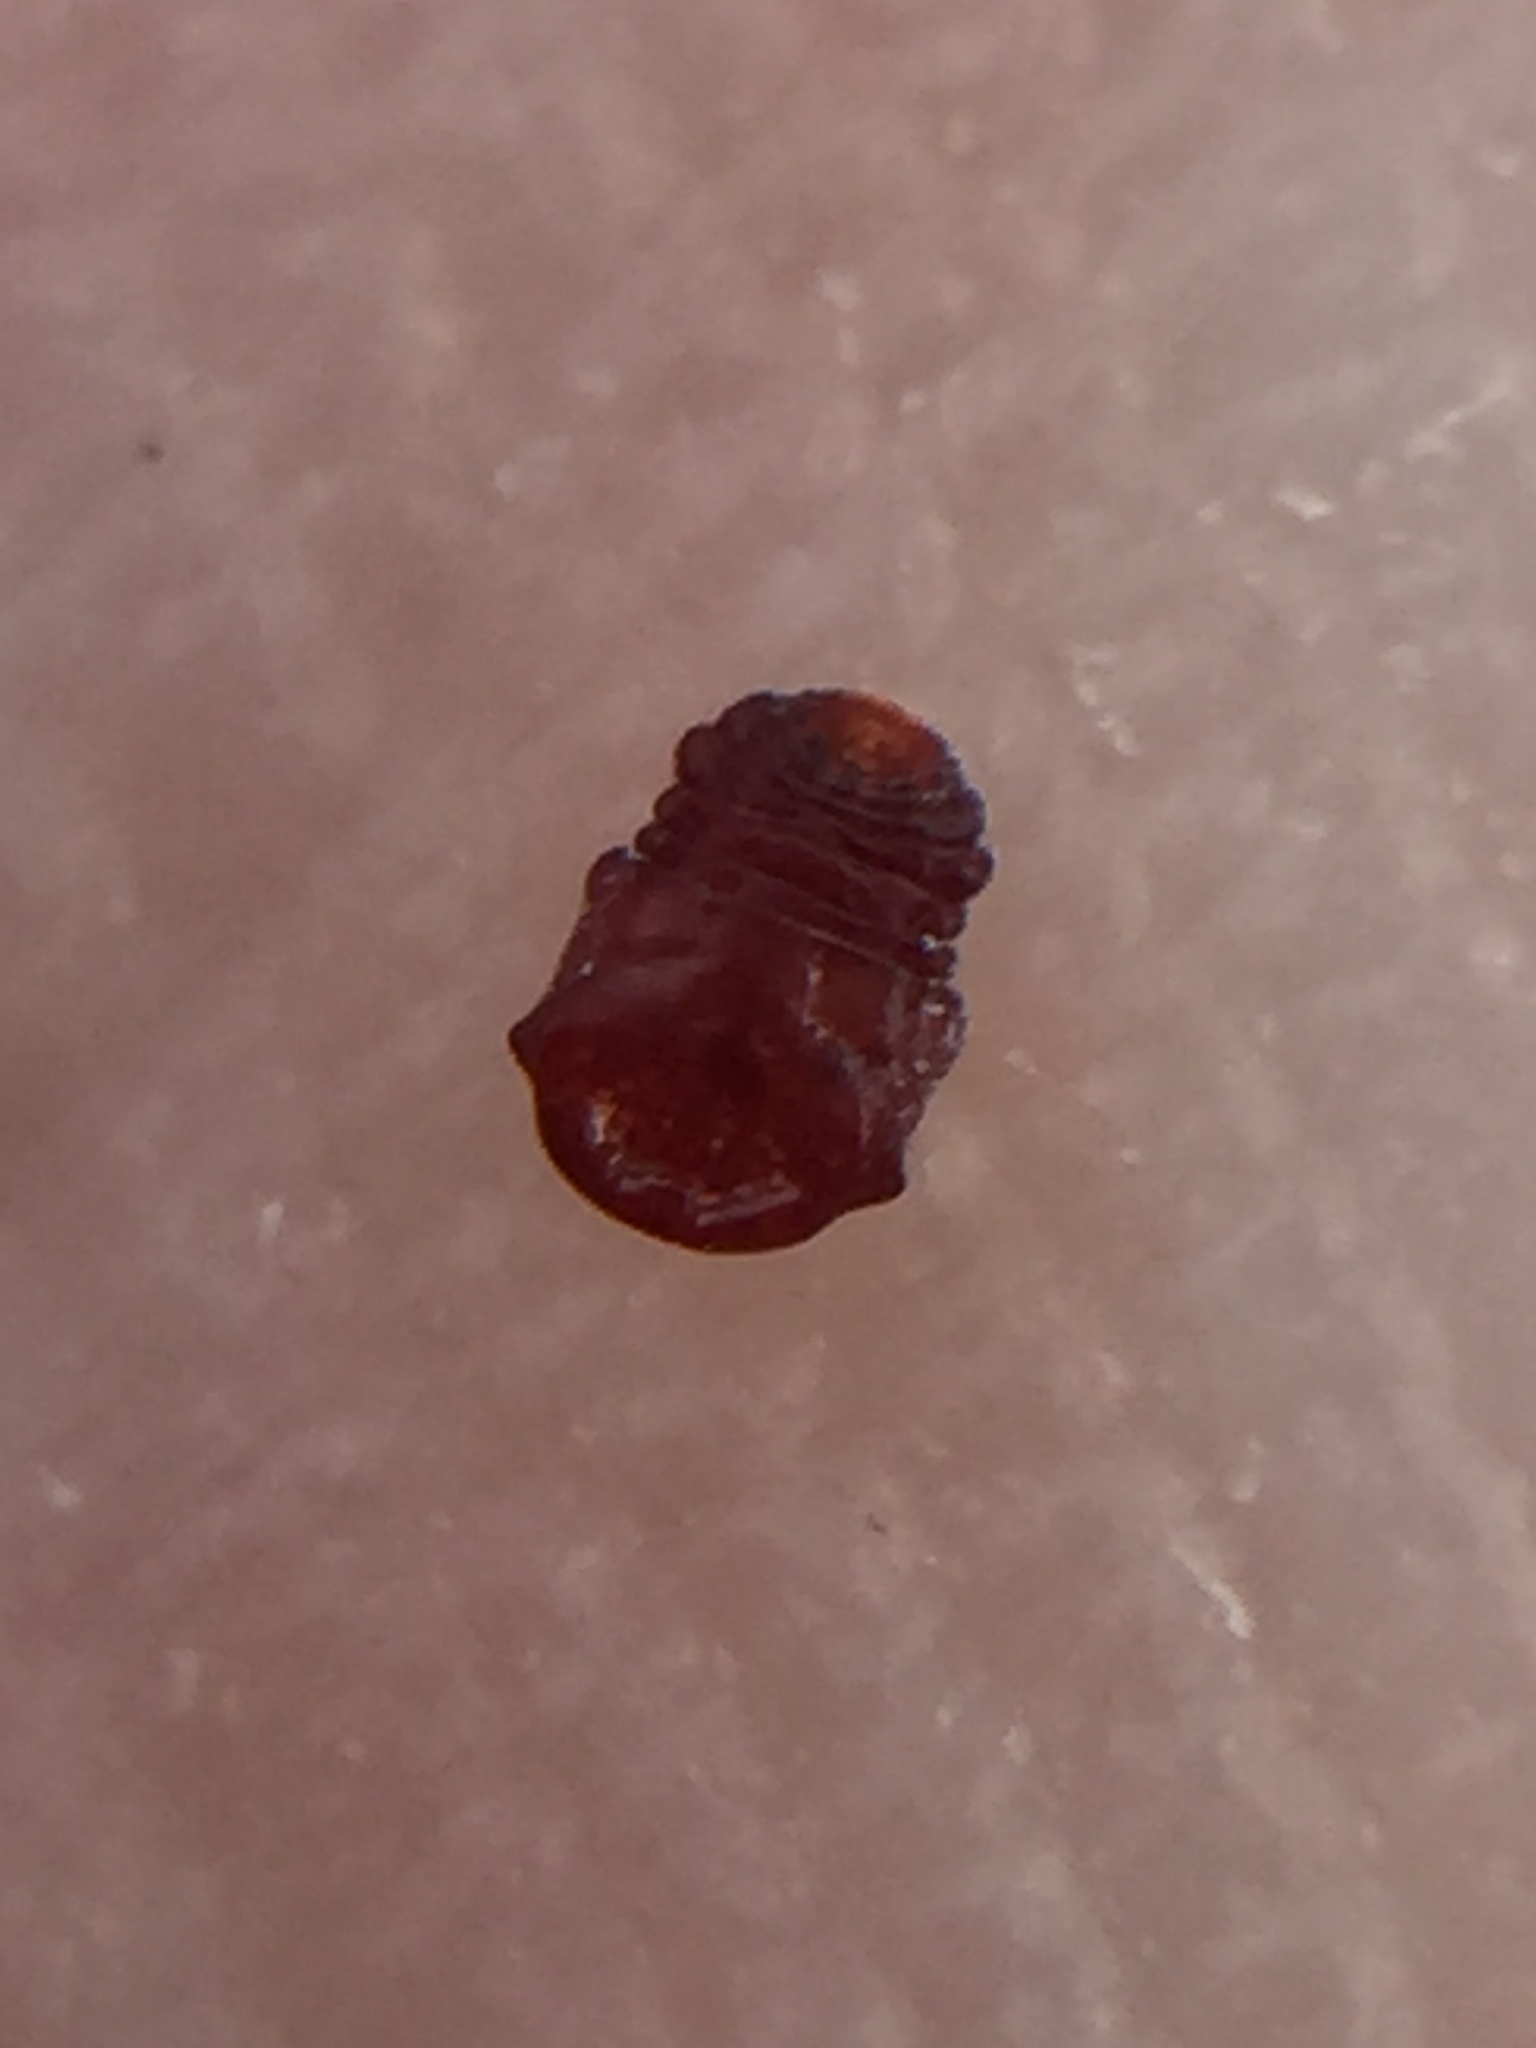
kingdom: Animalia
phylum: Arthropoda
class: Insecta
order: Hemiptera
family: Diaspididae
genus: Aulacaspis
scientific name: Aulacaspis rosarum
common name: Asiatic rose scale
